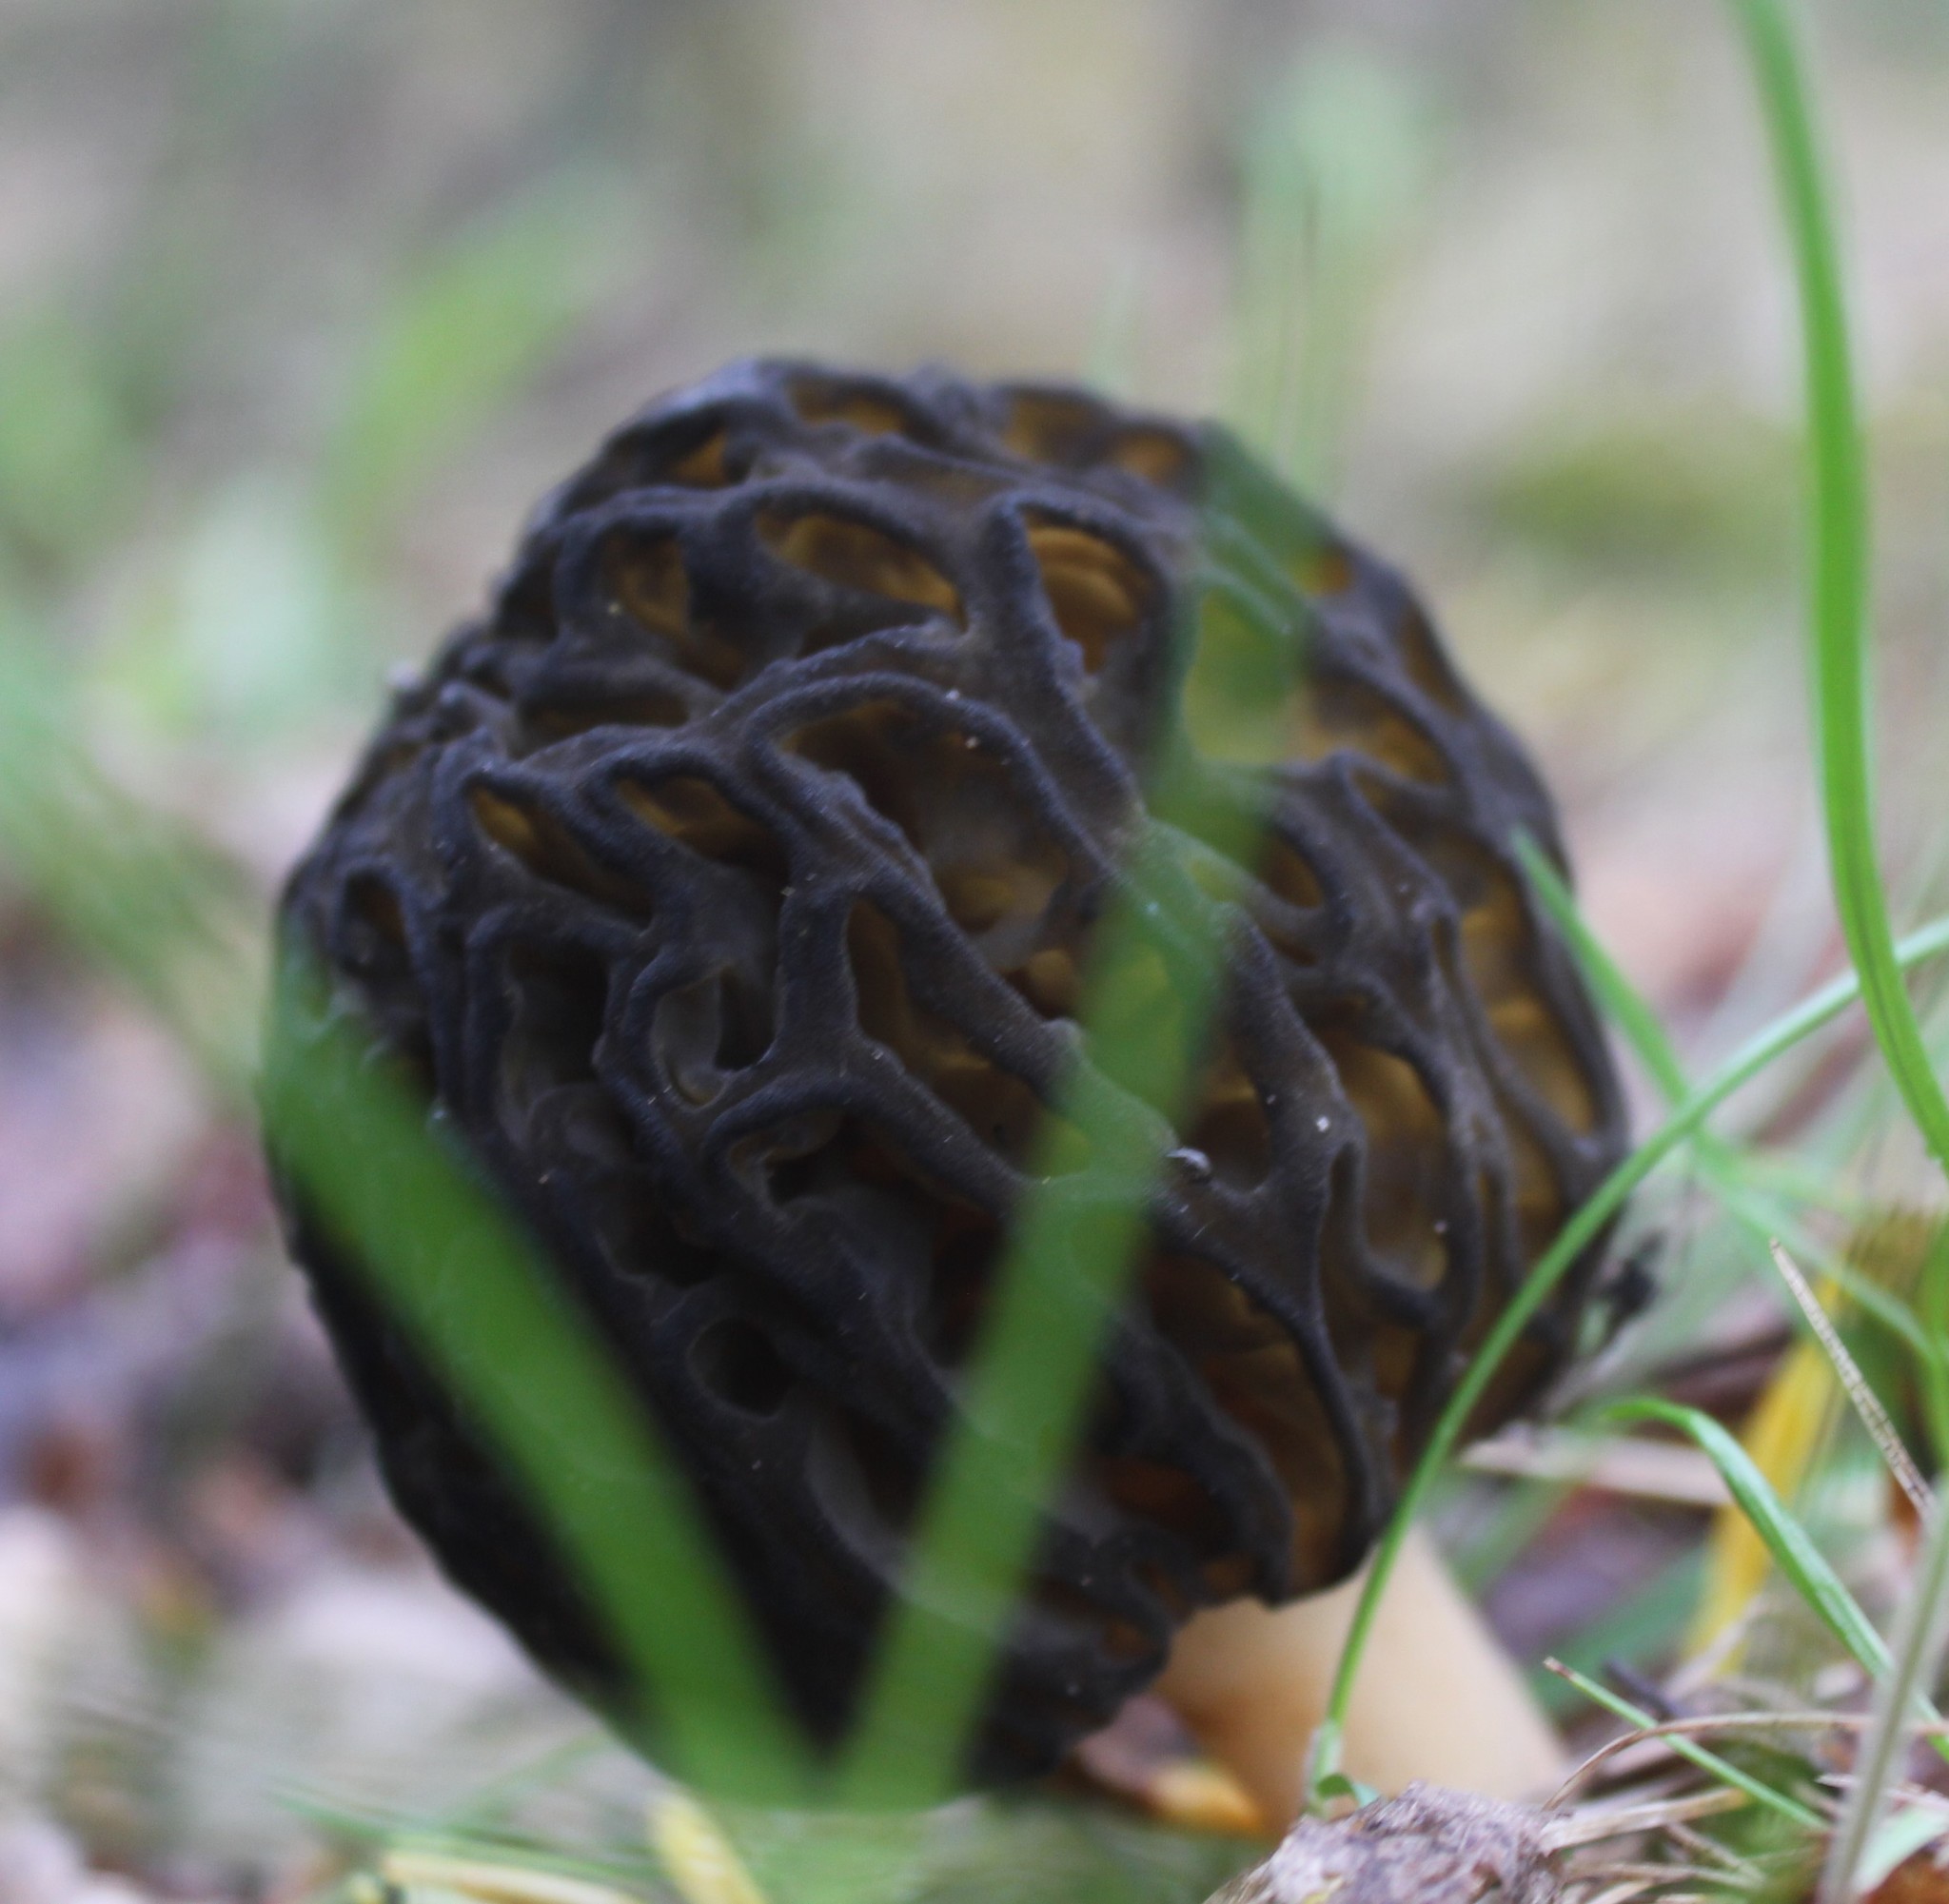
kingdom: Fungi
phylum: Ascomycota
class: Pezizomycetes
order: Pezizales
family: Morchellaceae
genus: Morchella
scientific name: Morchella
